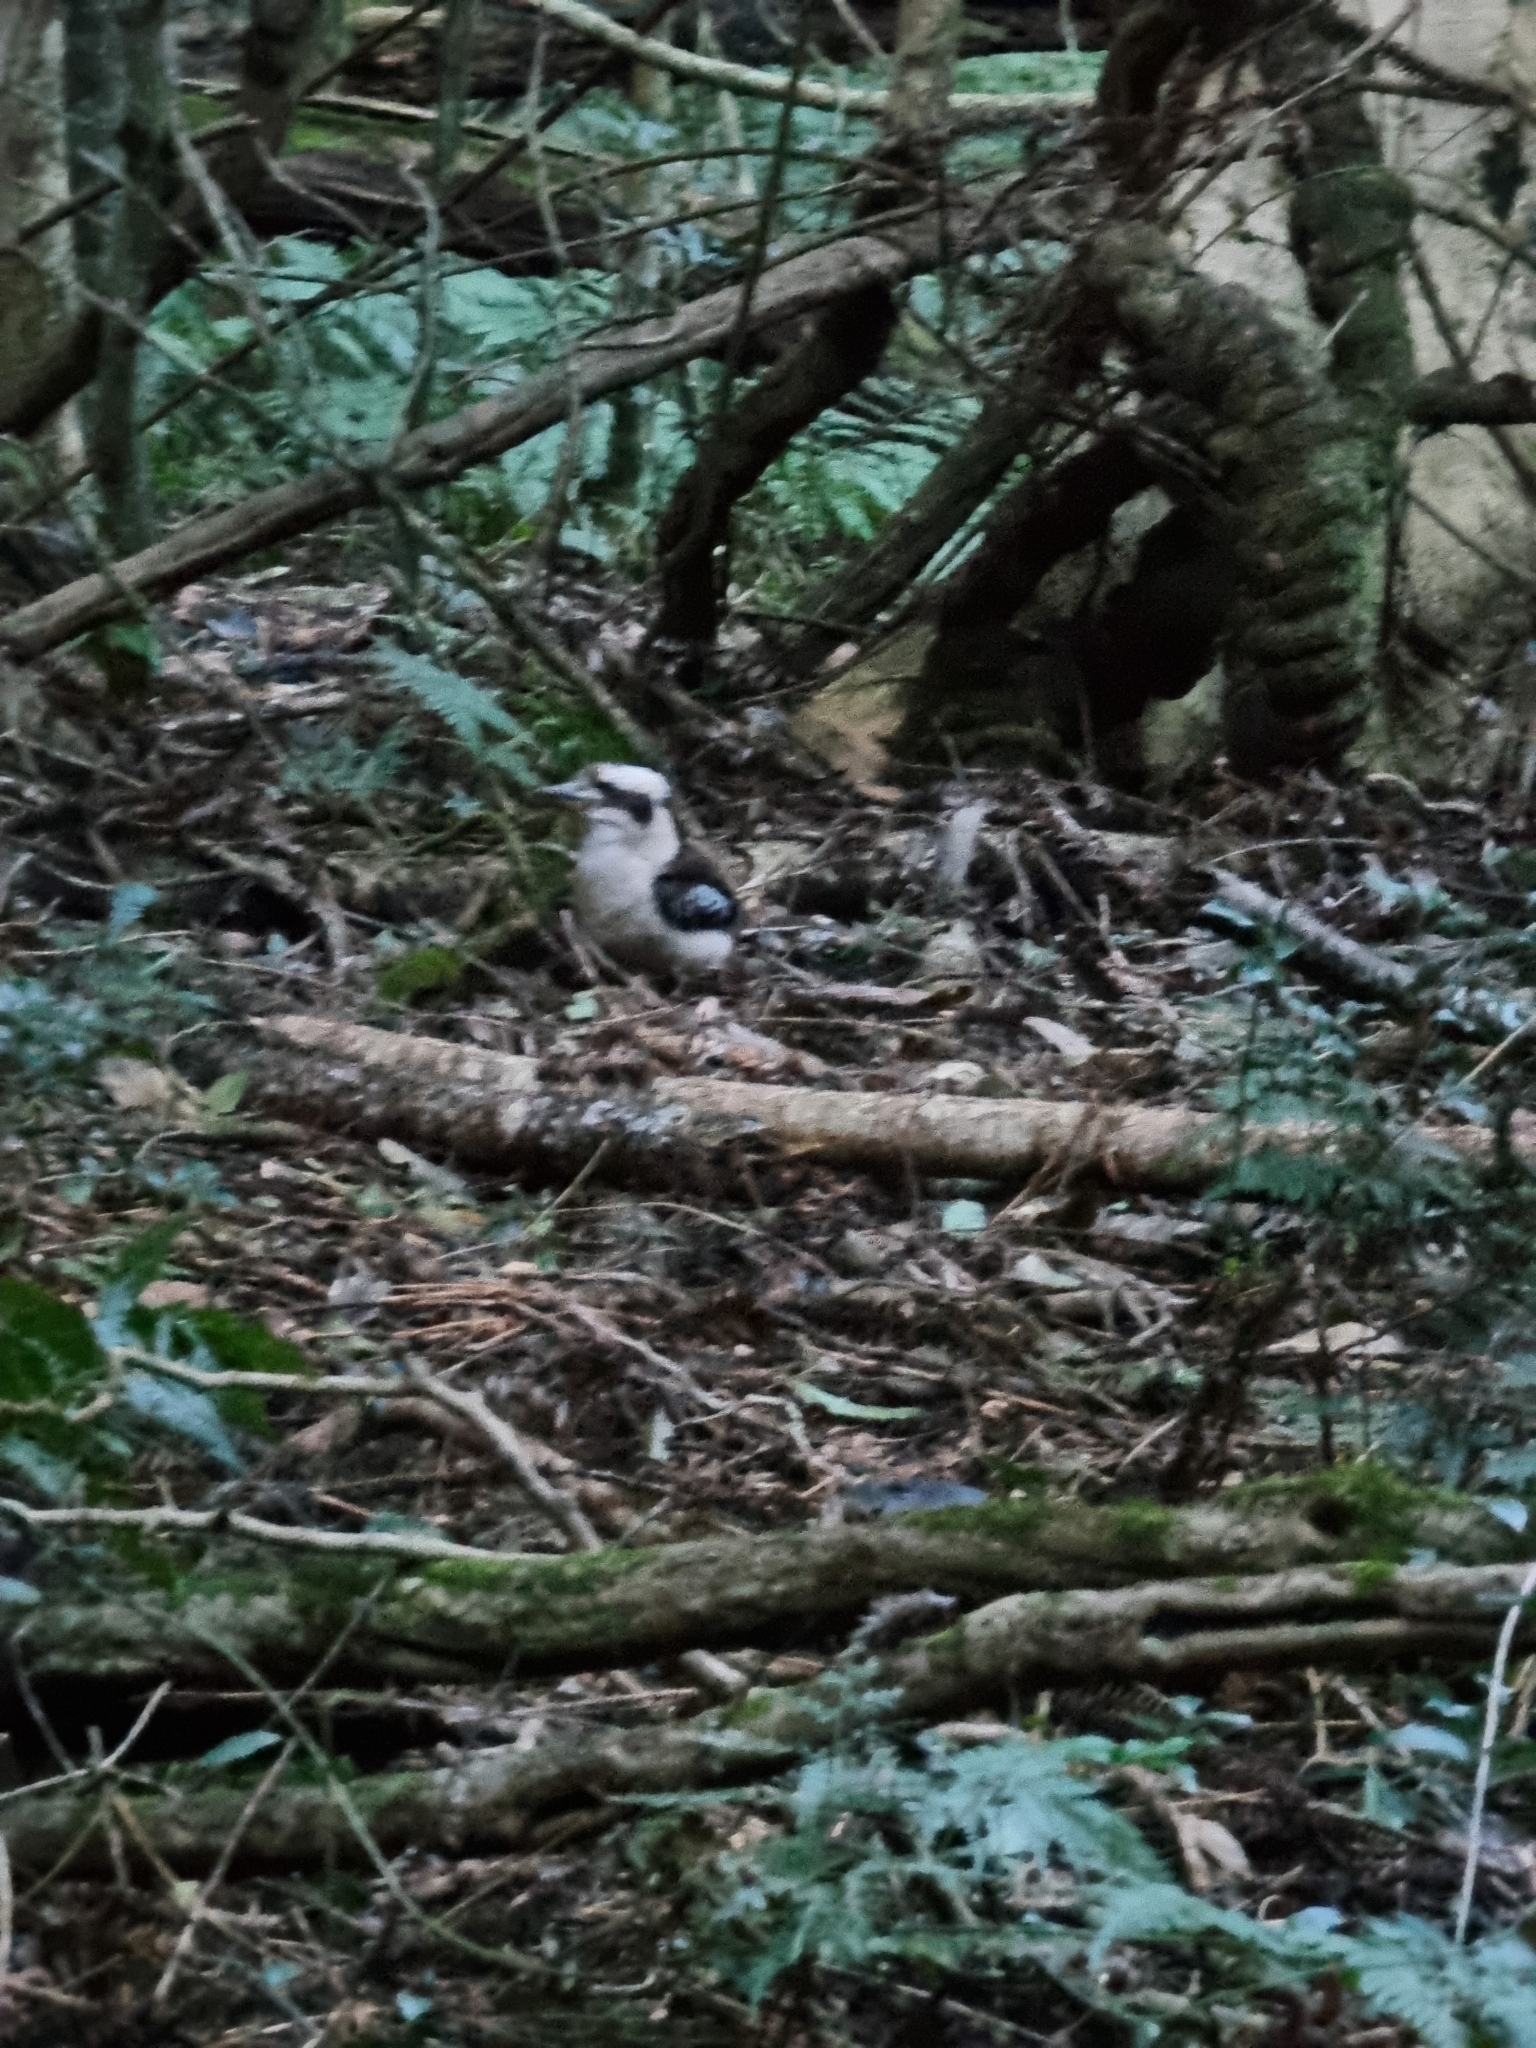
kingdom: Animalia
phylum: Chordata
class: Aves
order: Coraciiformes
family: Alcedinidae
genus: Dacelo
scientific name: Dacelo novaeguineae
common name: Laughing kookaburra
